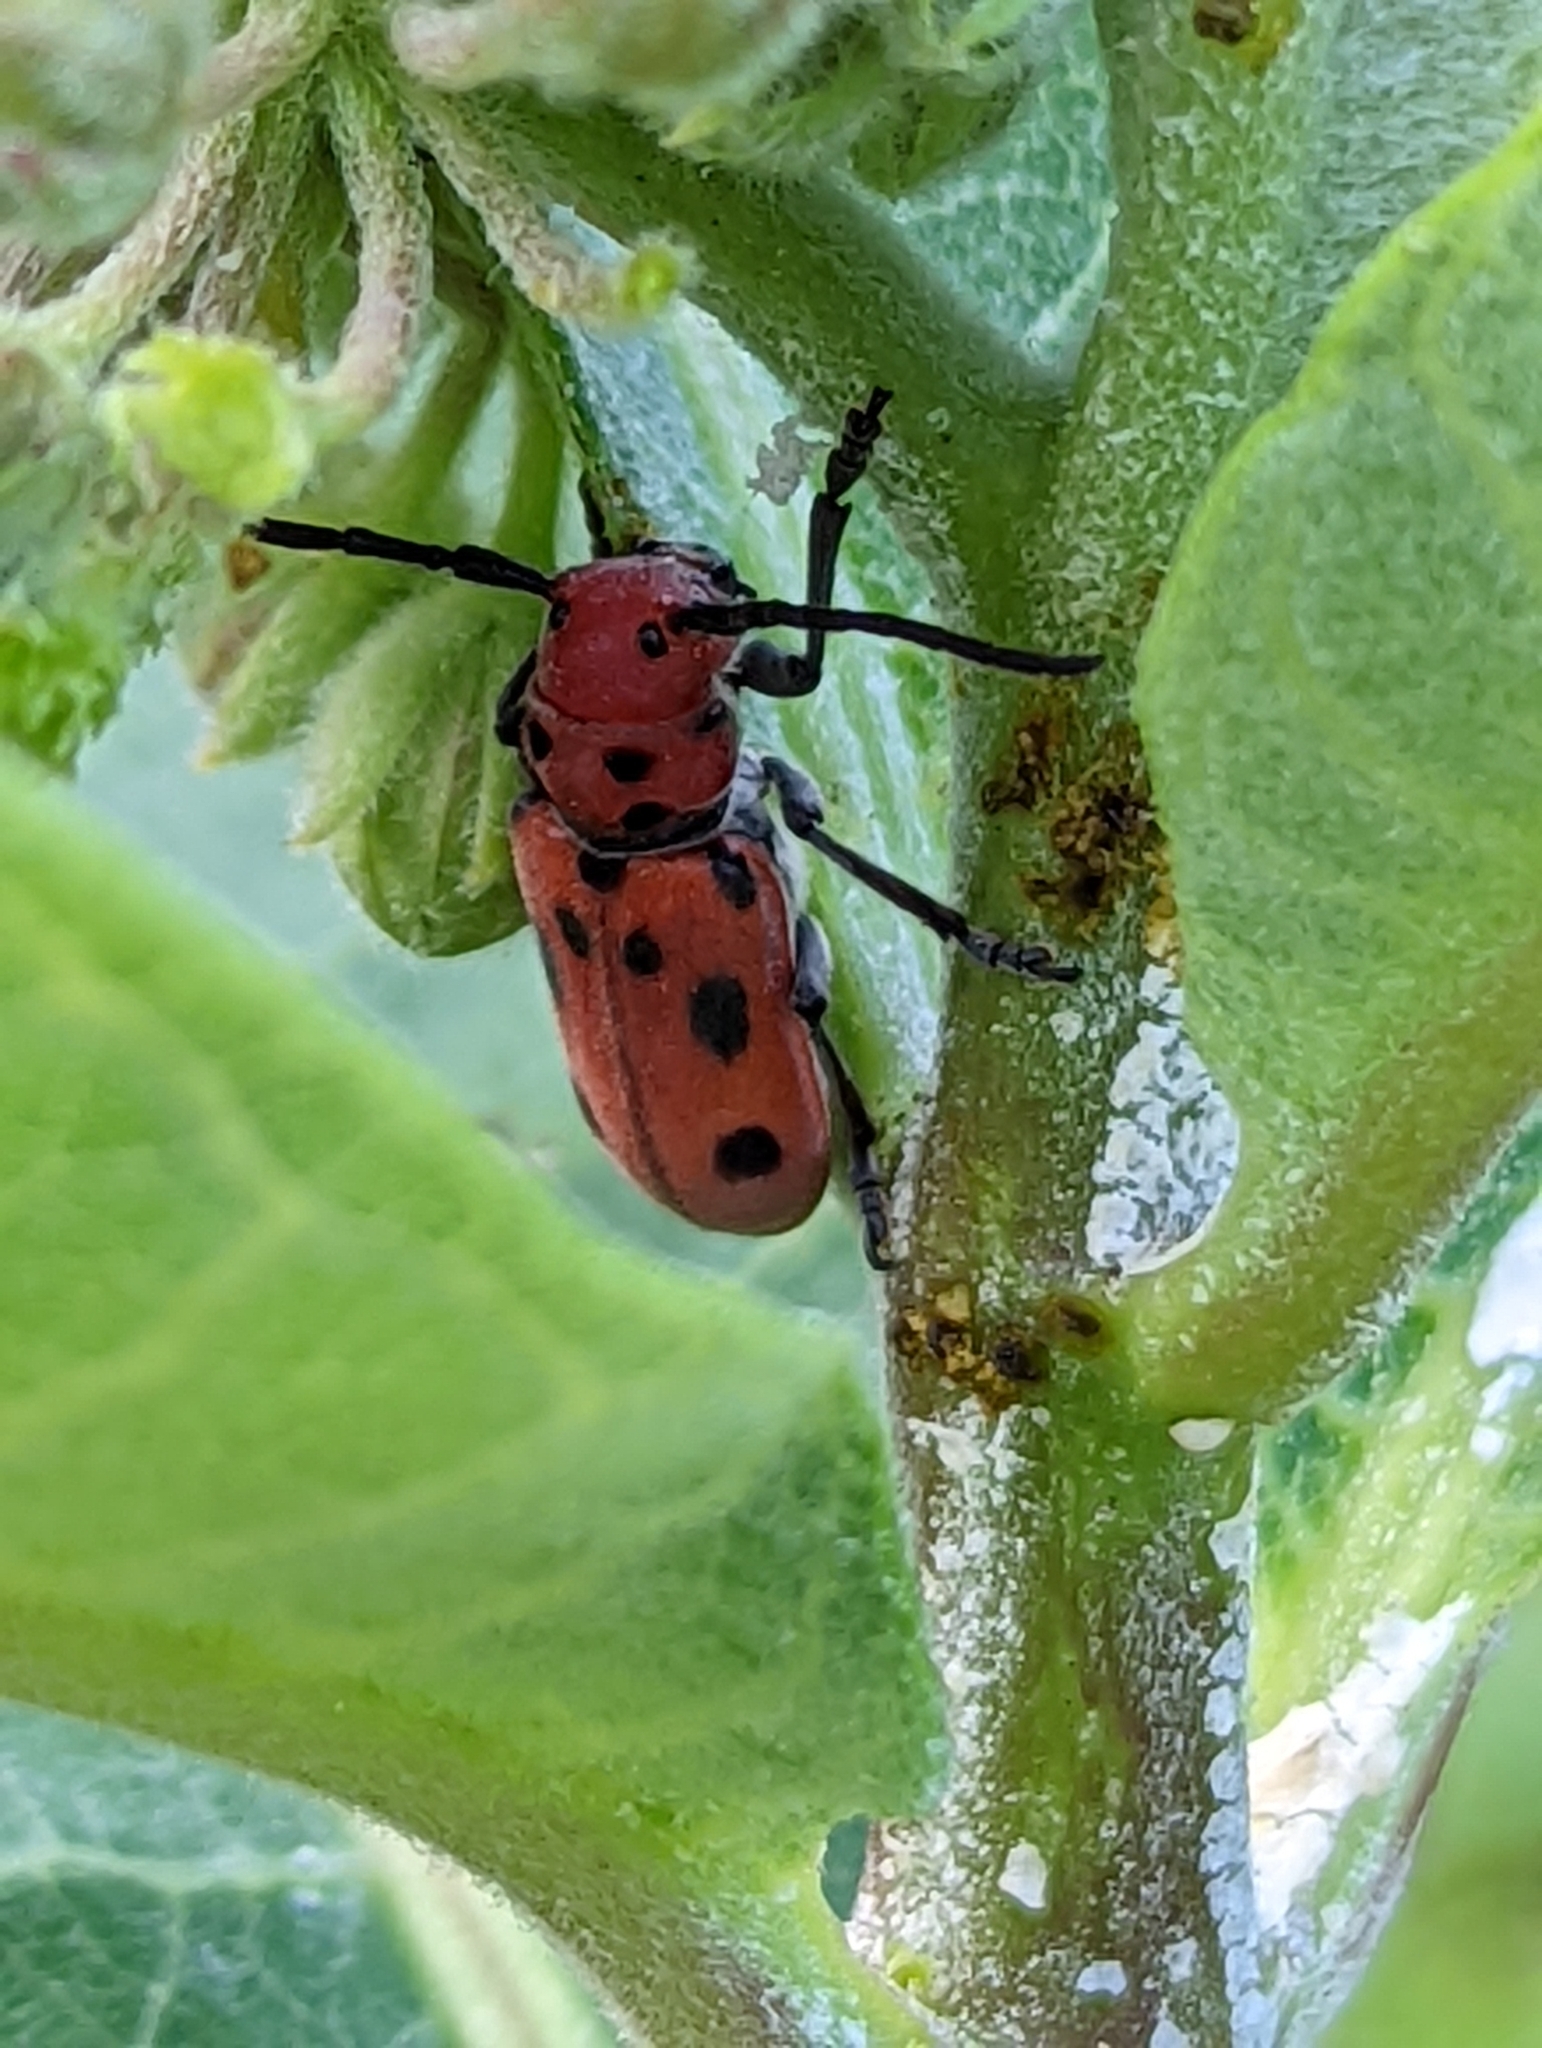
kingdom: Animalia
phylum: Arthropoda
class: Insecta
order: Coleoptera
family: Cerambycidae
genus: Tetraopes
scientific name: Tetraopes tetrophthalmus
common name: Red milkweed beetle
